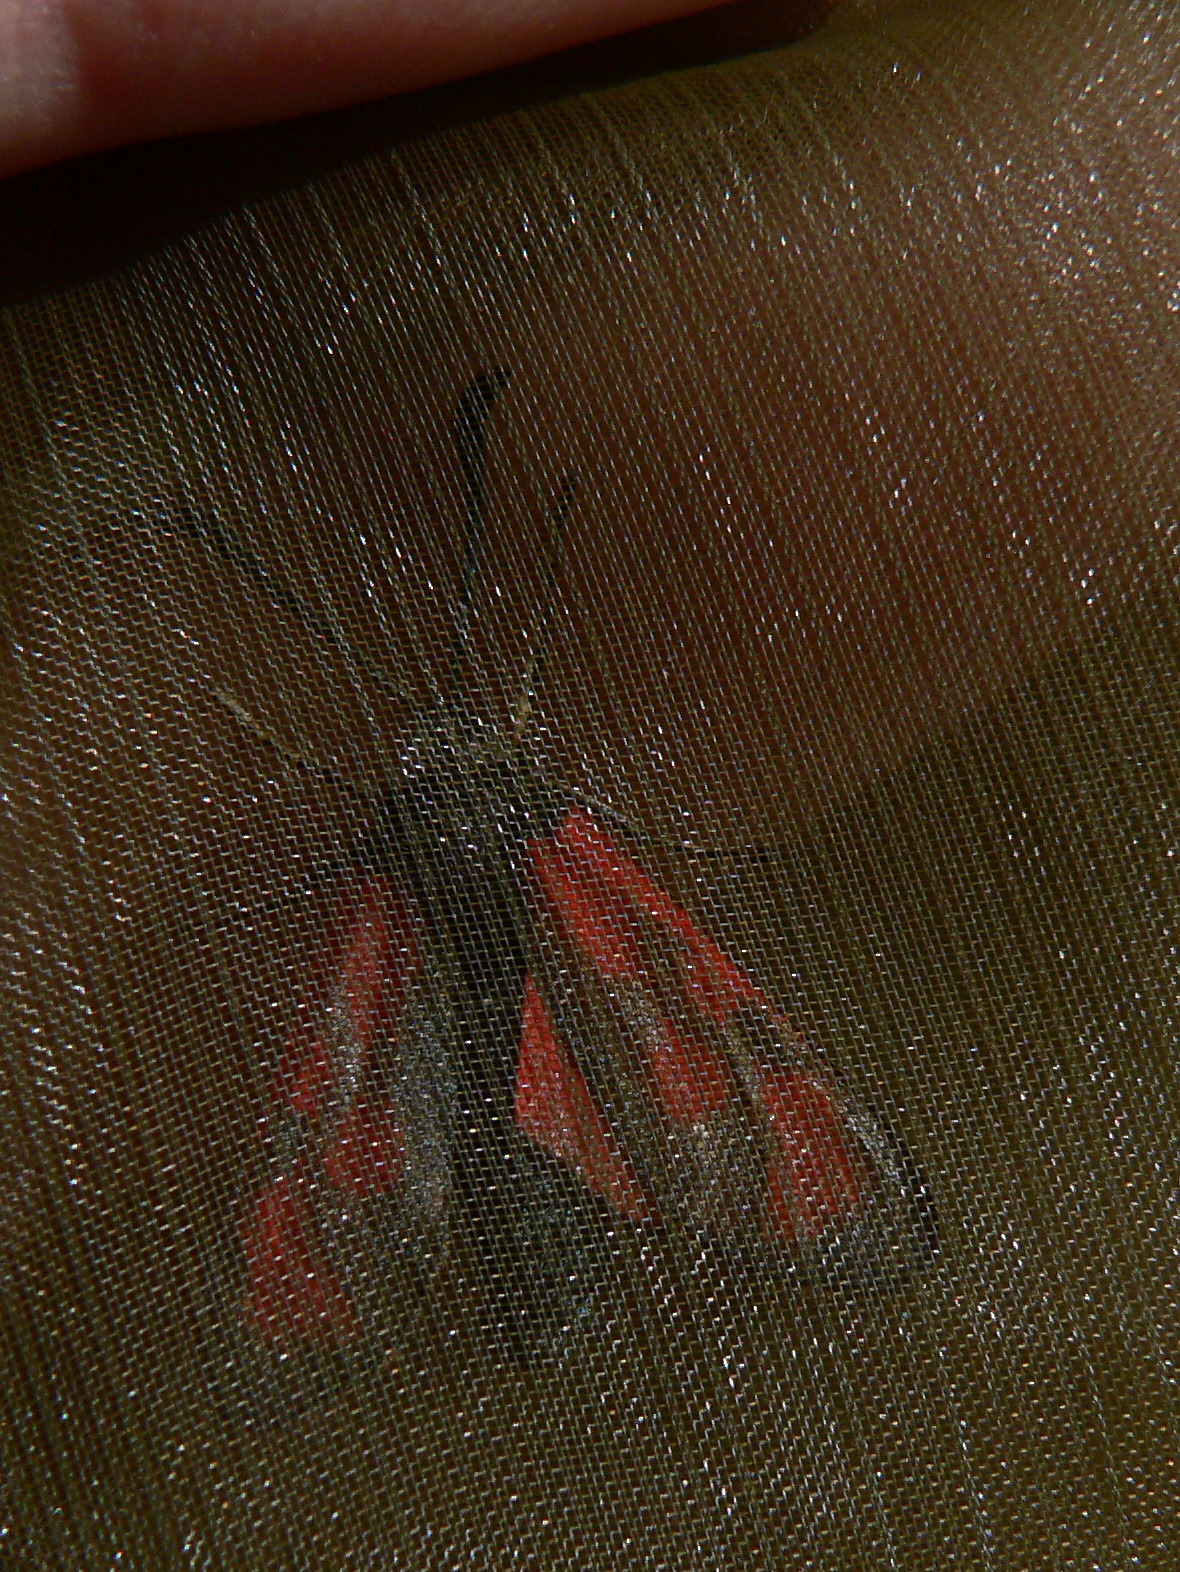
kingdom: Animalia
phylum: Arthropoda
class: Insecta
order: Lepidoptera
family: Zygaenidae
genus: Zygaena
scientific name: Zygaena loti
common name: Slender scotch burnet
